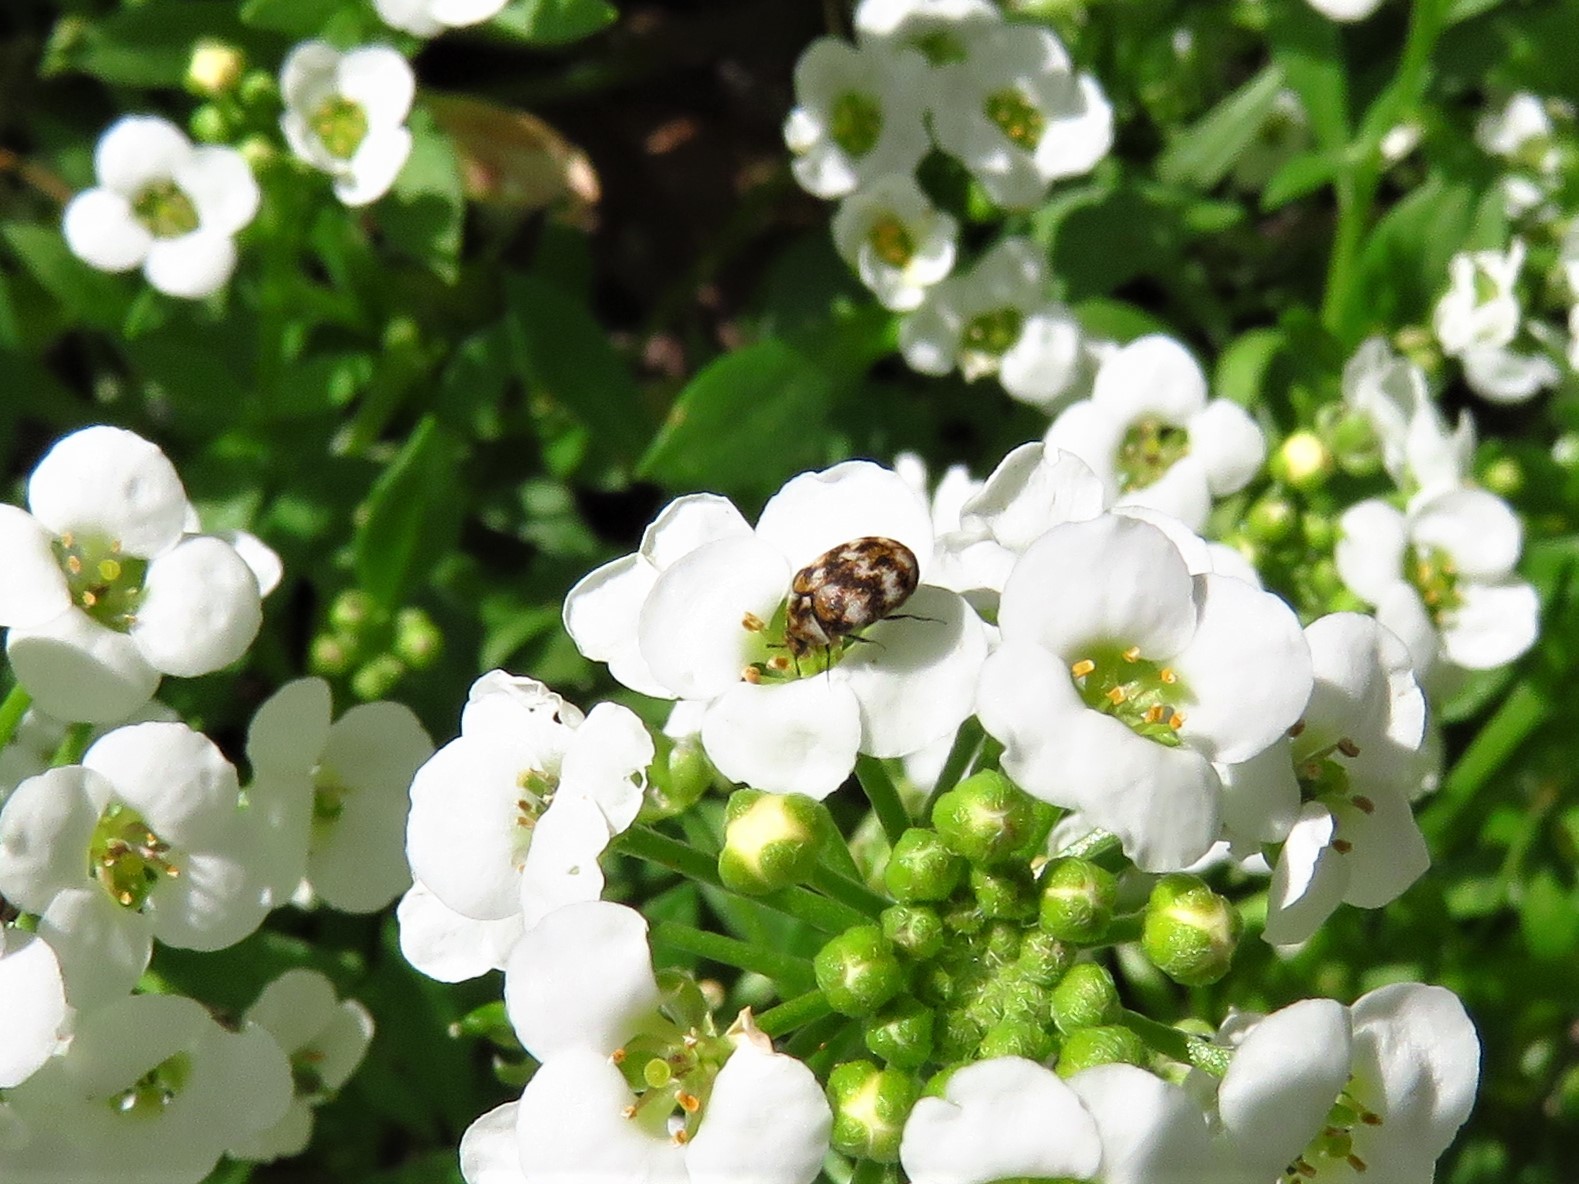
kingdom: Animalia
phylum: Arthropoda
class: Insecta
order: Coleoptera
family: Dermestidae
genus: Anthrenus
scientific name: Anthrenus verbasci
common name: Varied carpet beetle
